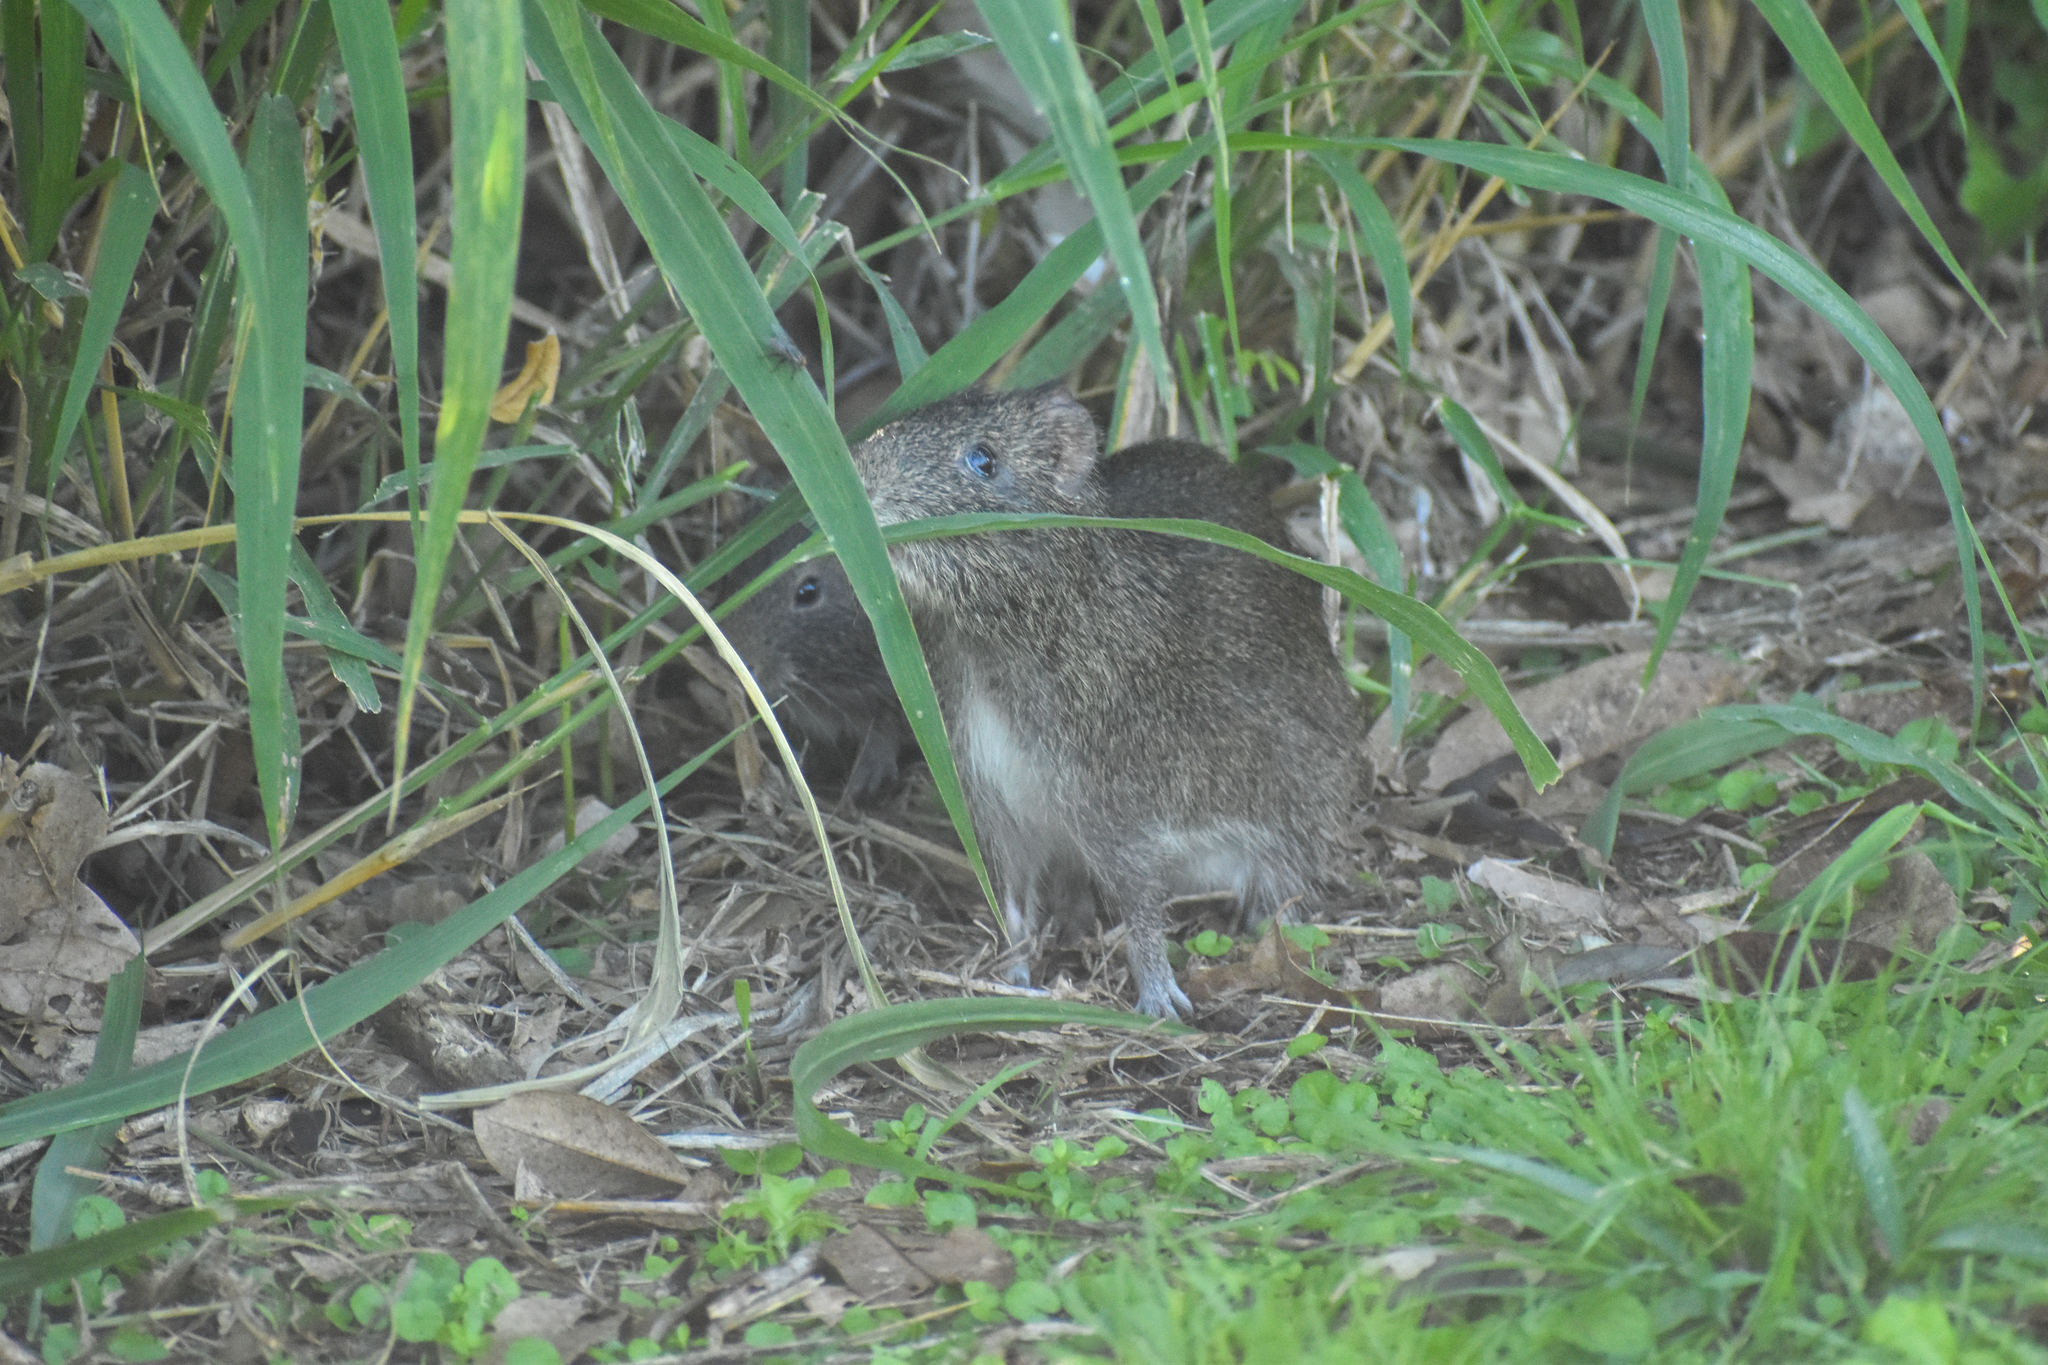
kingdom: Animalia
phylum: Chordata
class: Mammalia
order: Rodentia
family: Caviidae
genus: Cavia
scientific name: Cavia aperea
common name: Brazilian guinea pig
